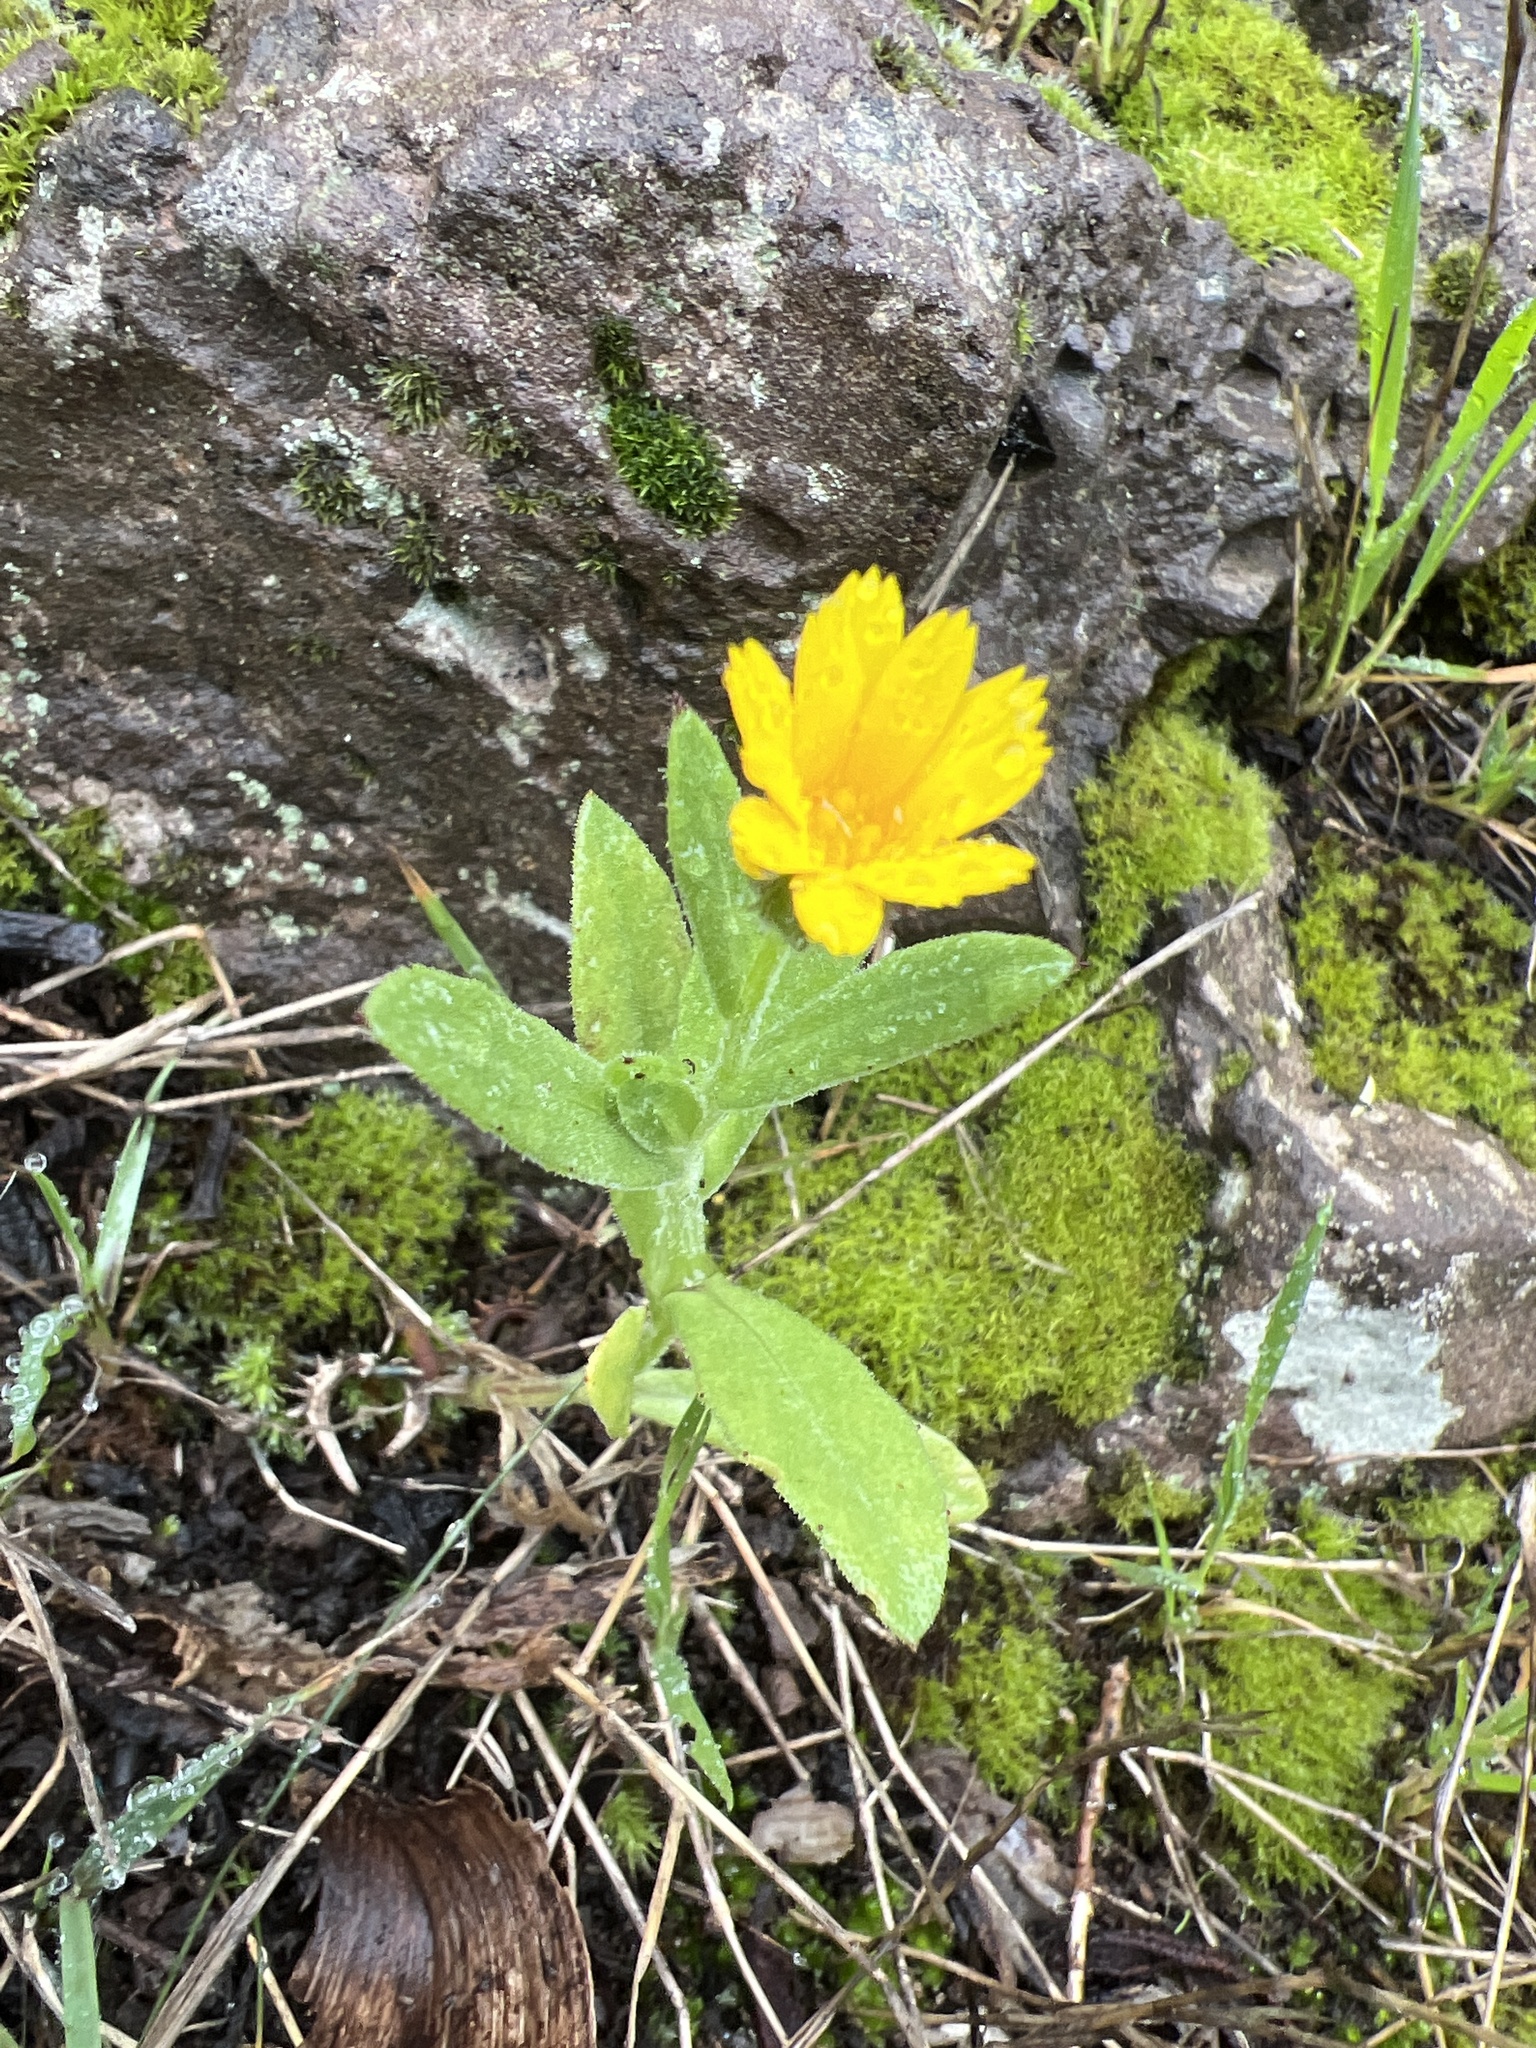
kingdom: Plantae
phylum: Tracheophyta
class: Magnoliopsida
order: Asterales
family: Asteraceae
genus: Calendula
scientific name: Calendula arvensis
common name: Field marigold
